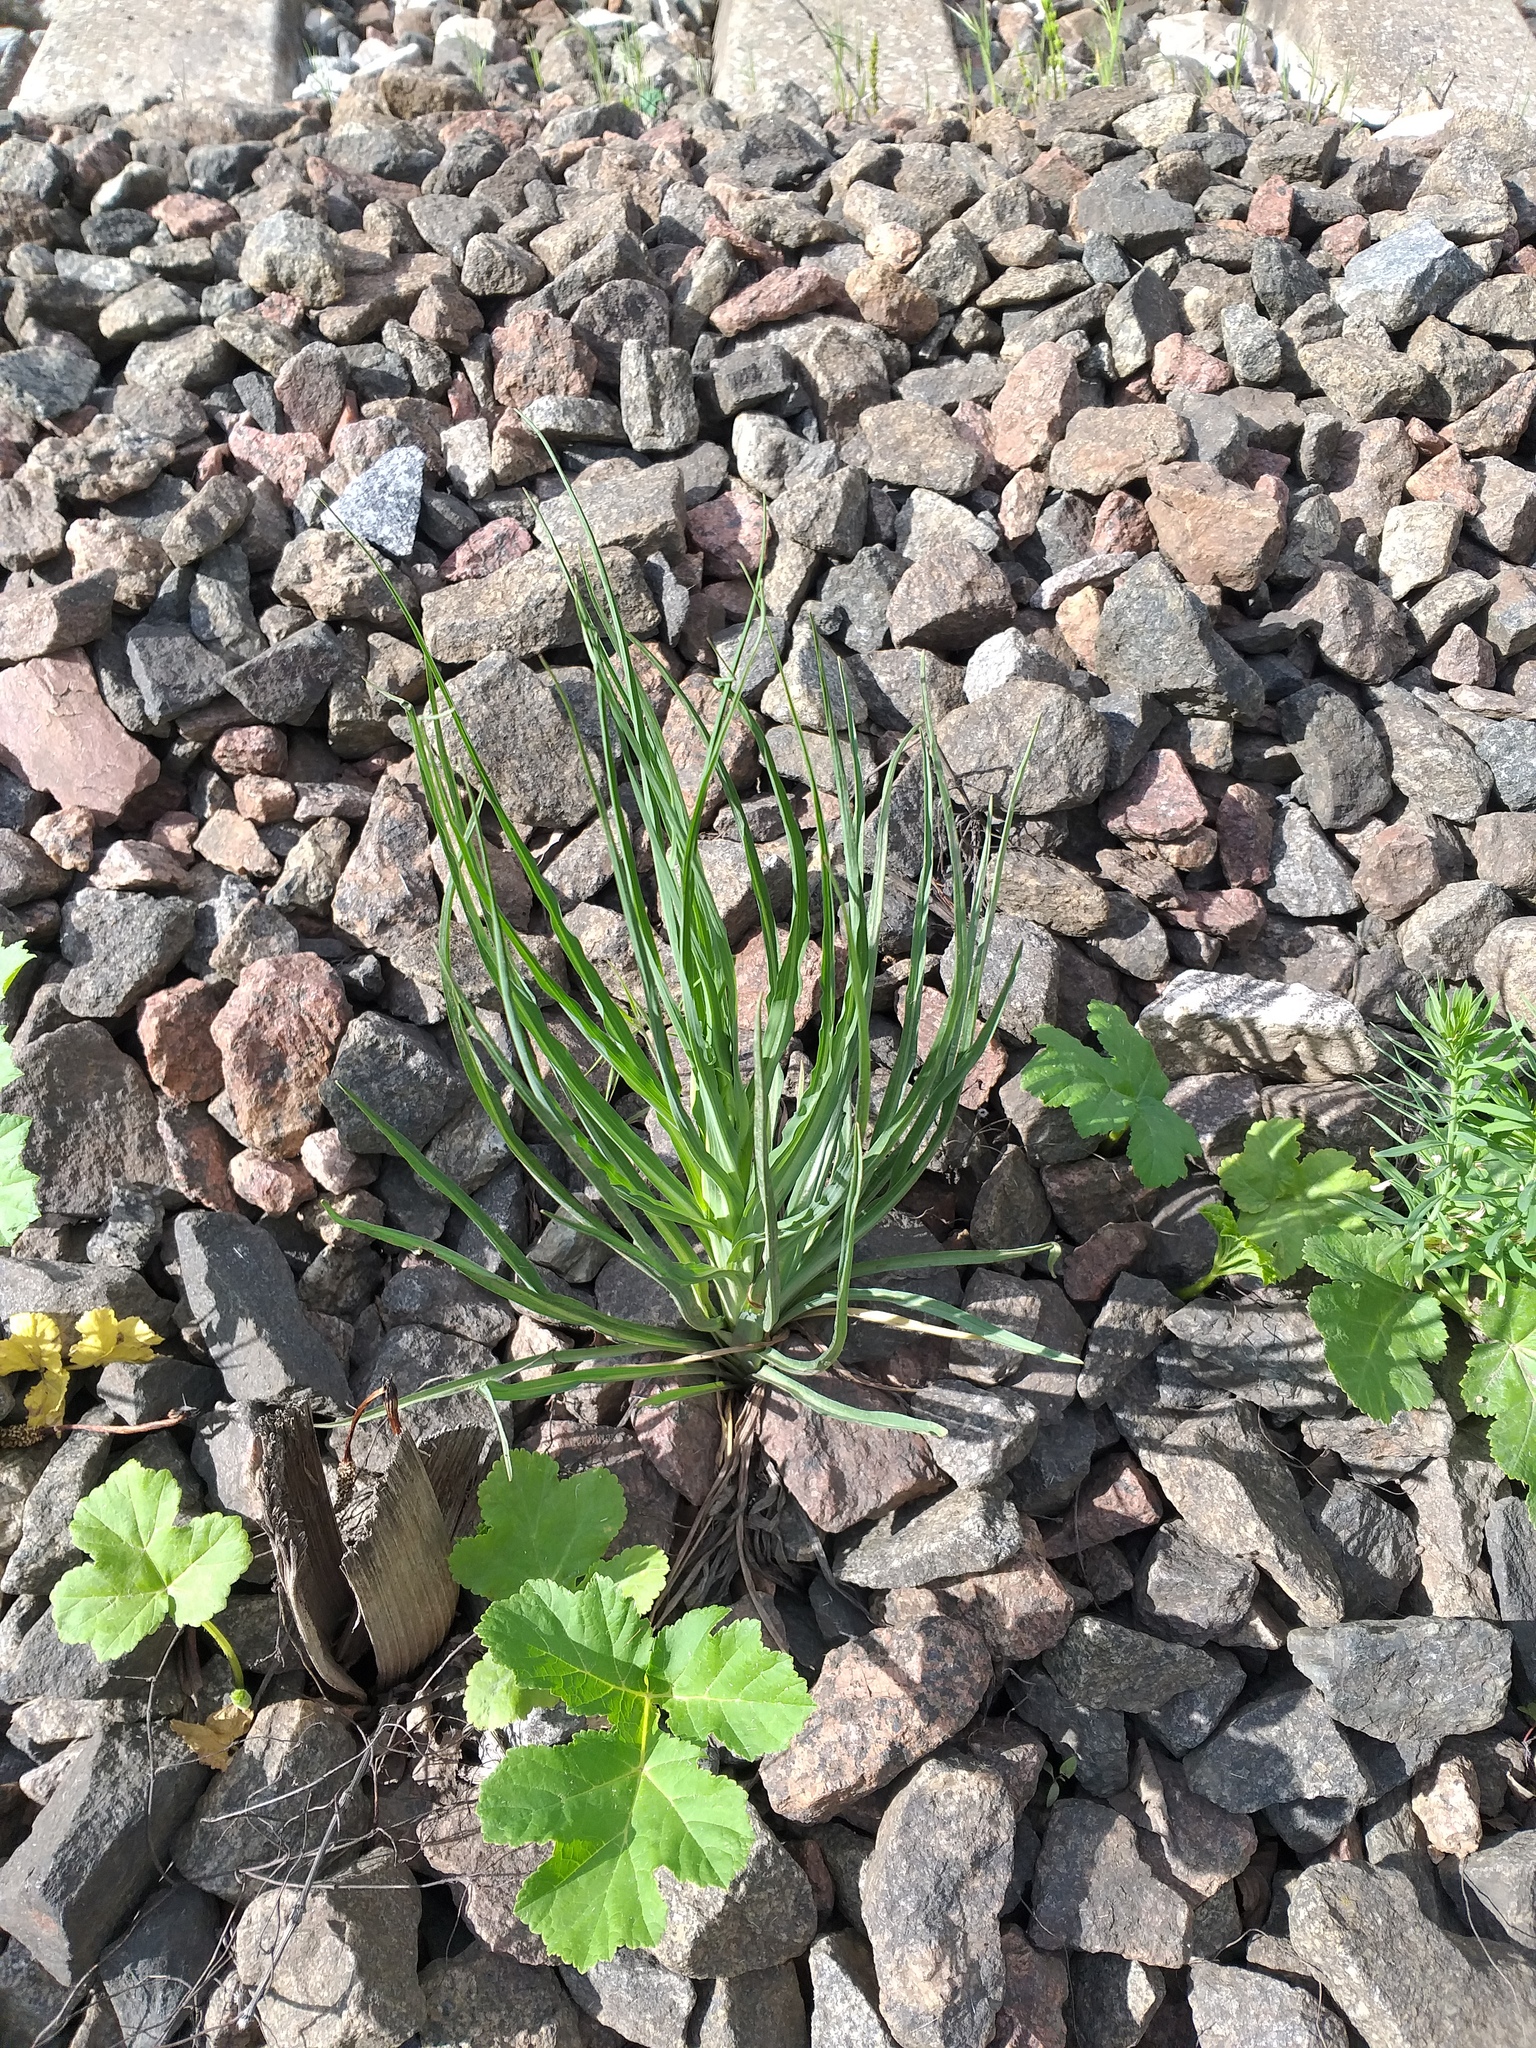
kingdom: Plantae
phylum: Tracheophyta
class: Magnoliopsida
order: Asterales
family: Asteraceae
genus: Tragopogon
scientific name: Tragopogon dubius
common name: Yellow salsify
